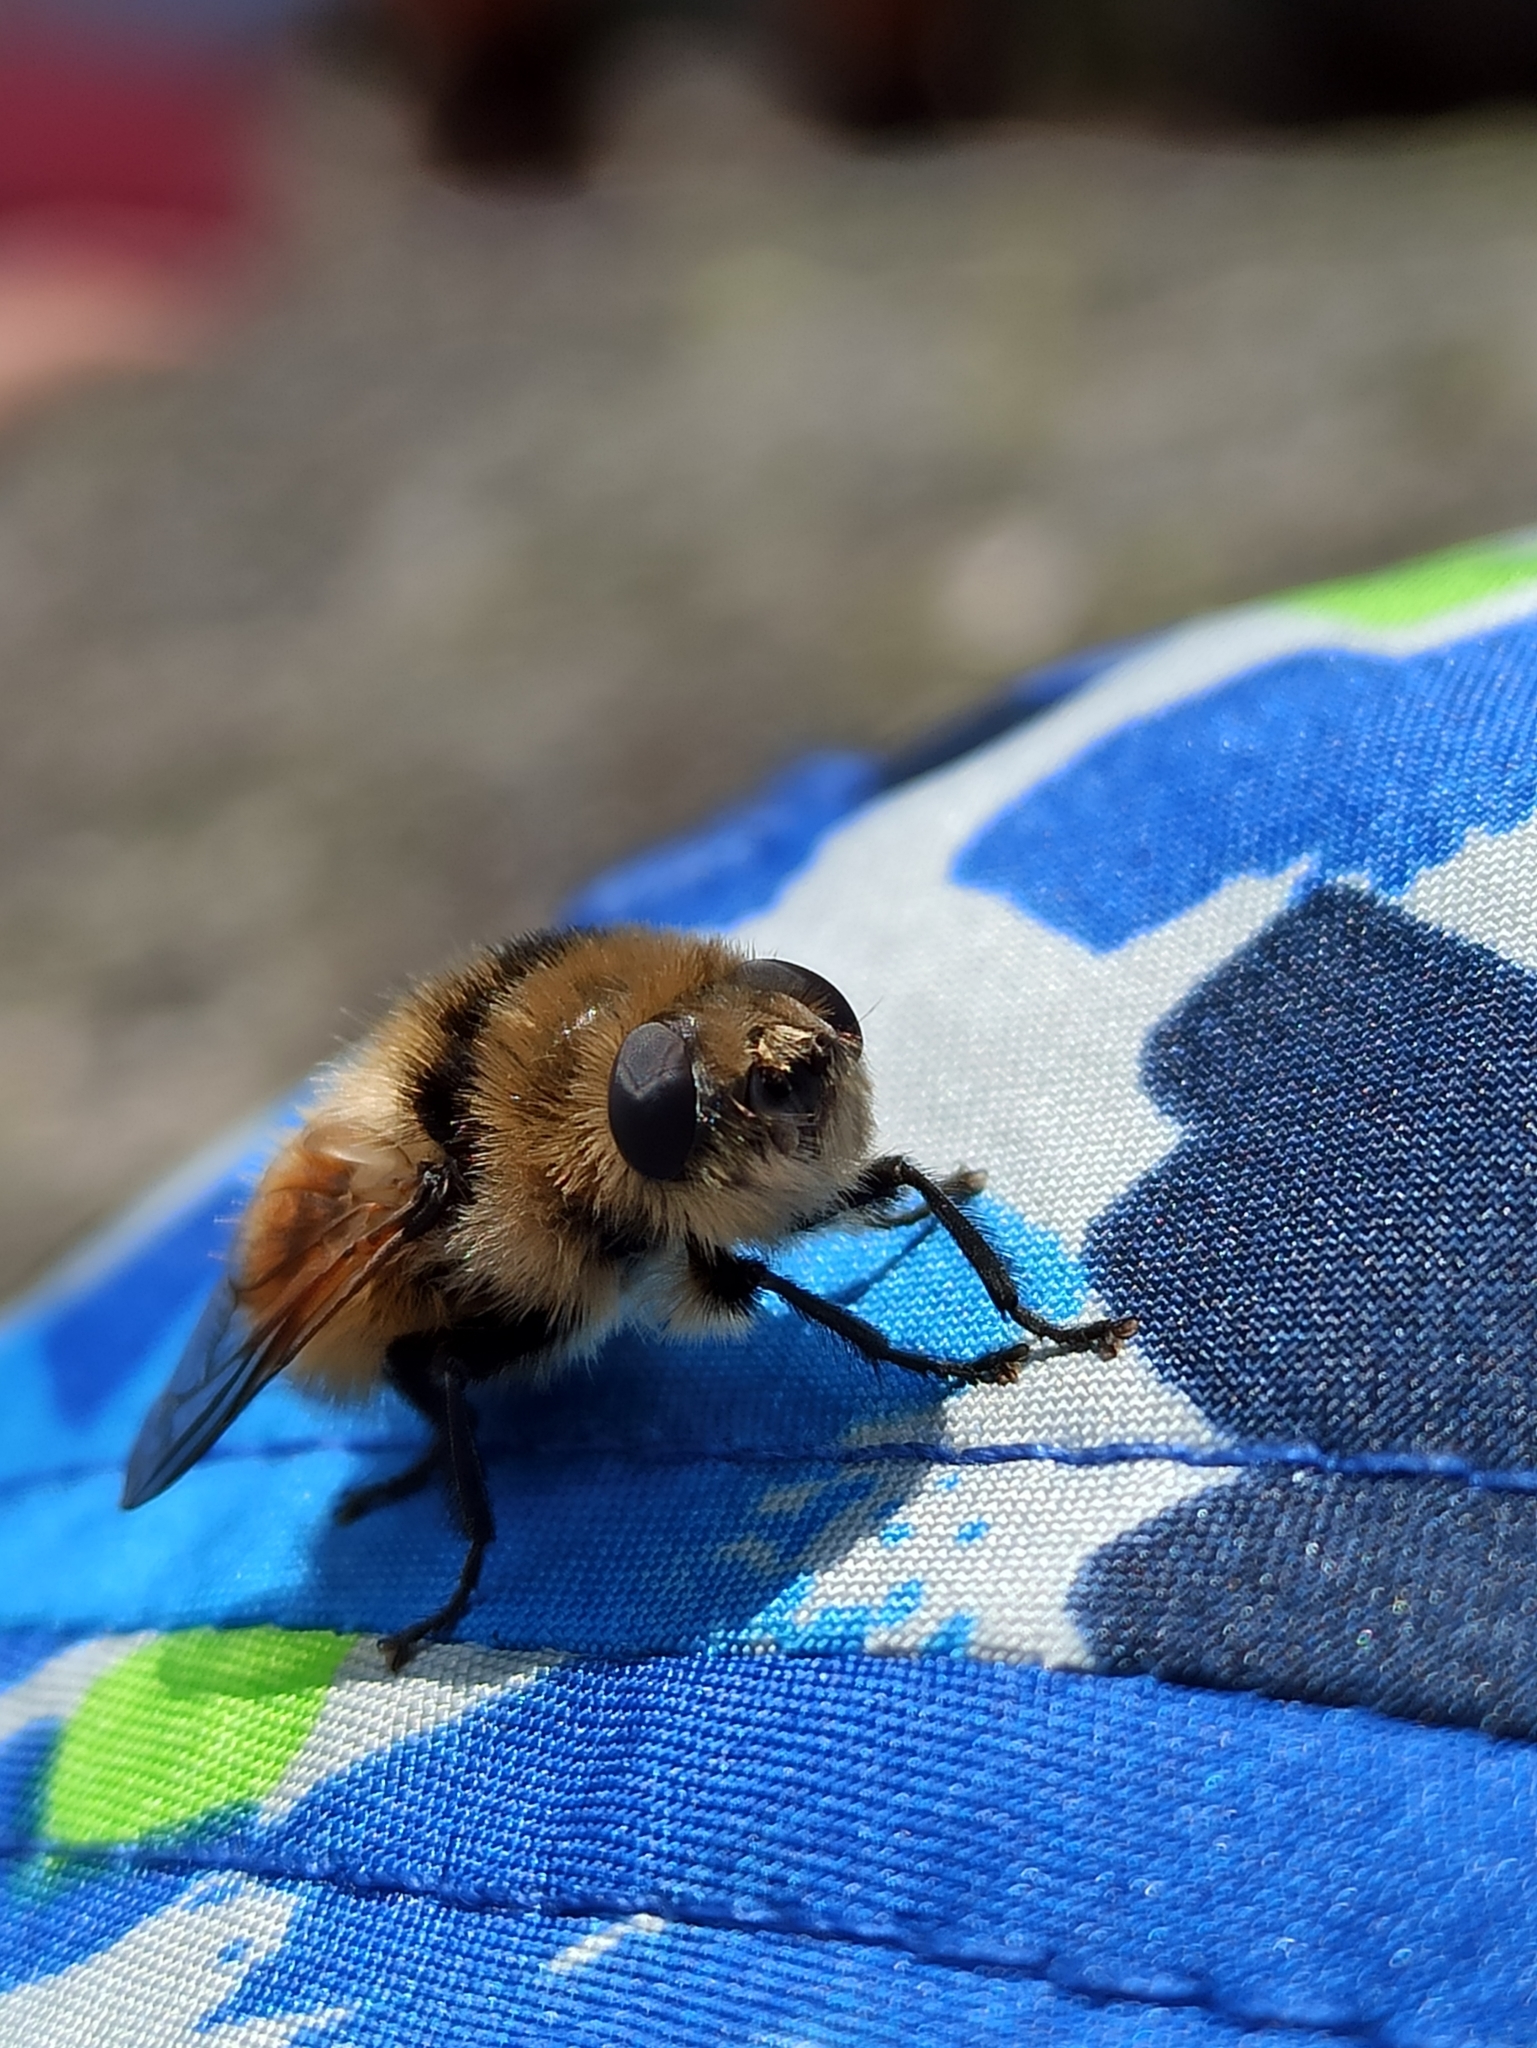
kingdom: Animalia
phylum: Arthropoda
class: Insecta
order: Diptera
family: Oestridae
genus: Cephenemyia
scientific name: Cephenemyia stimulator
